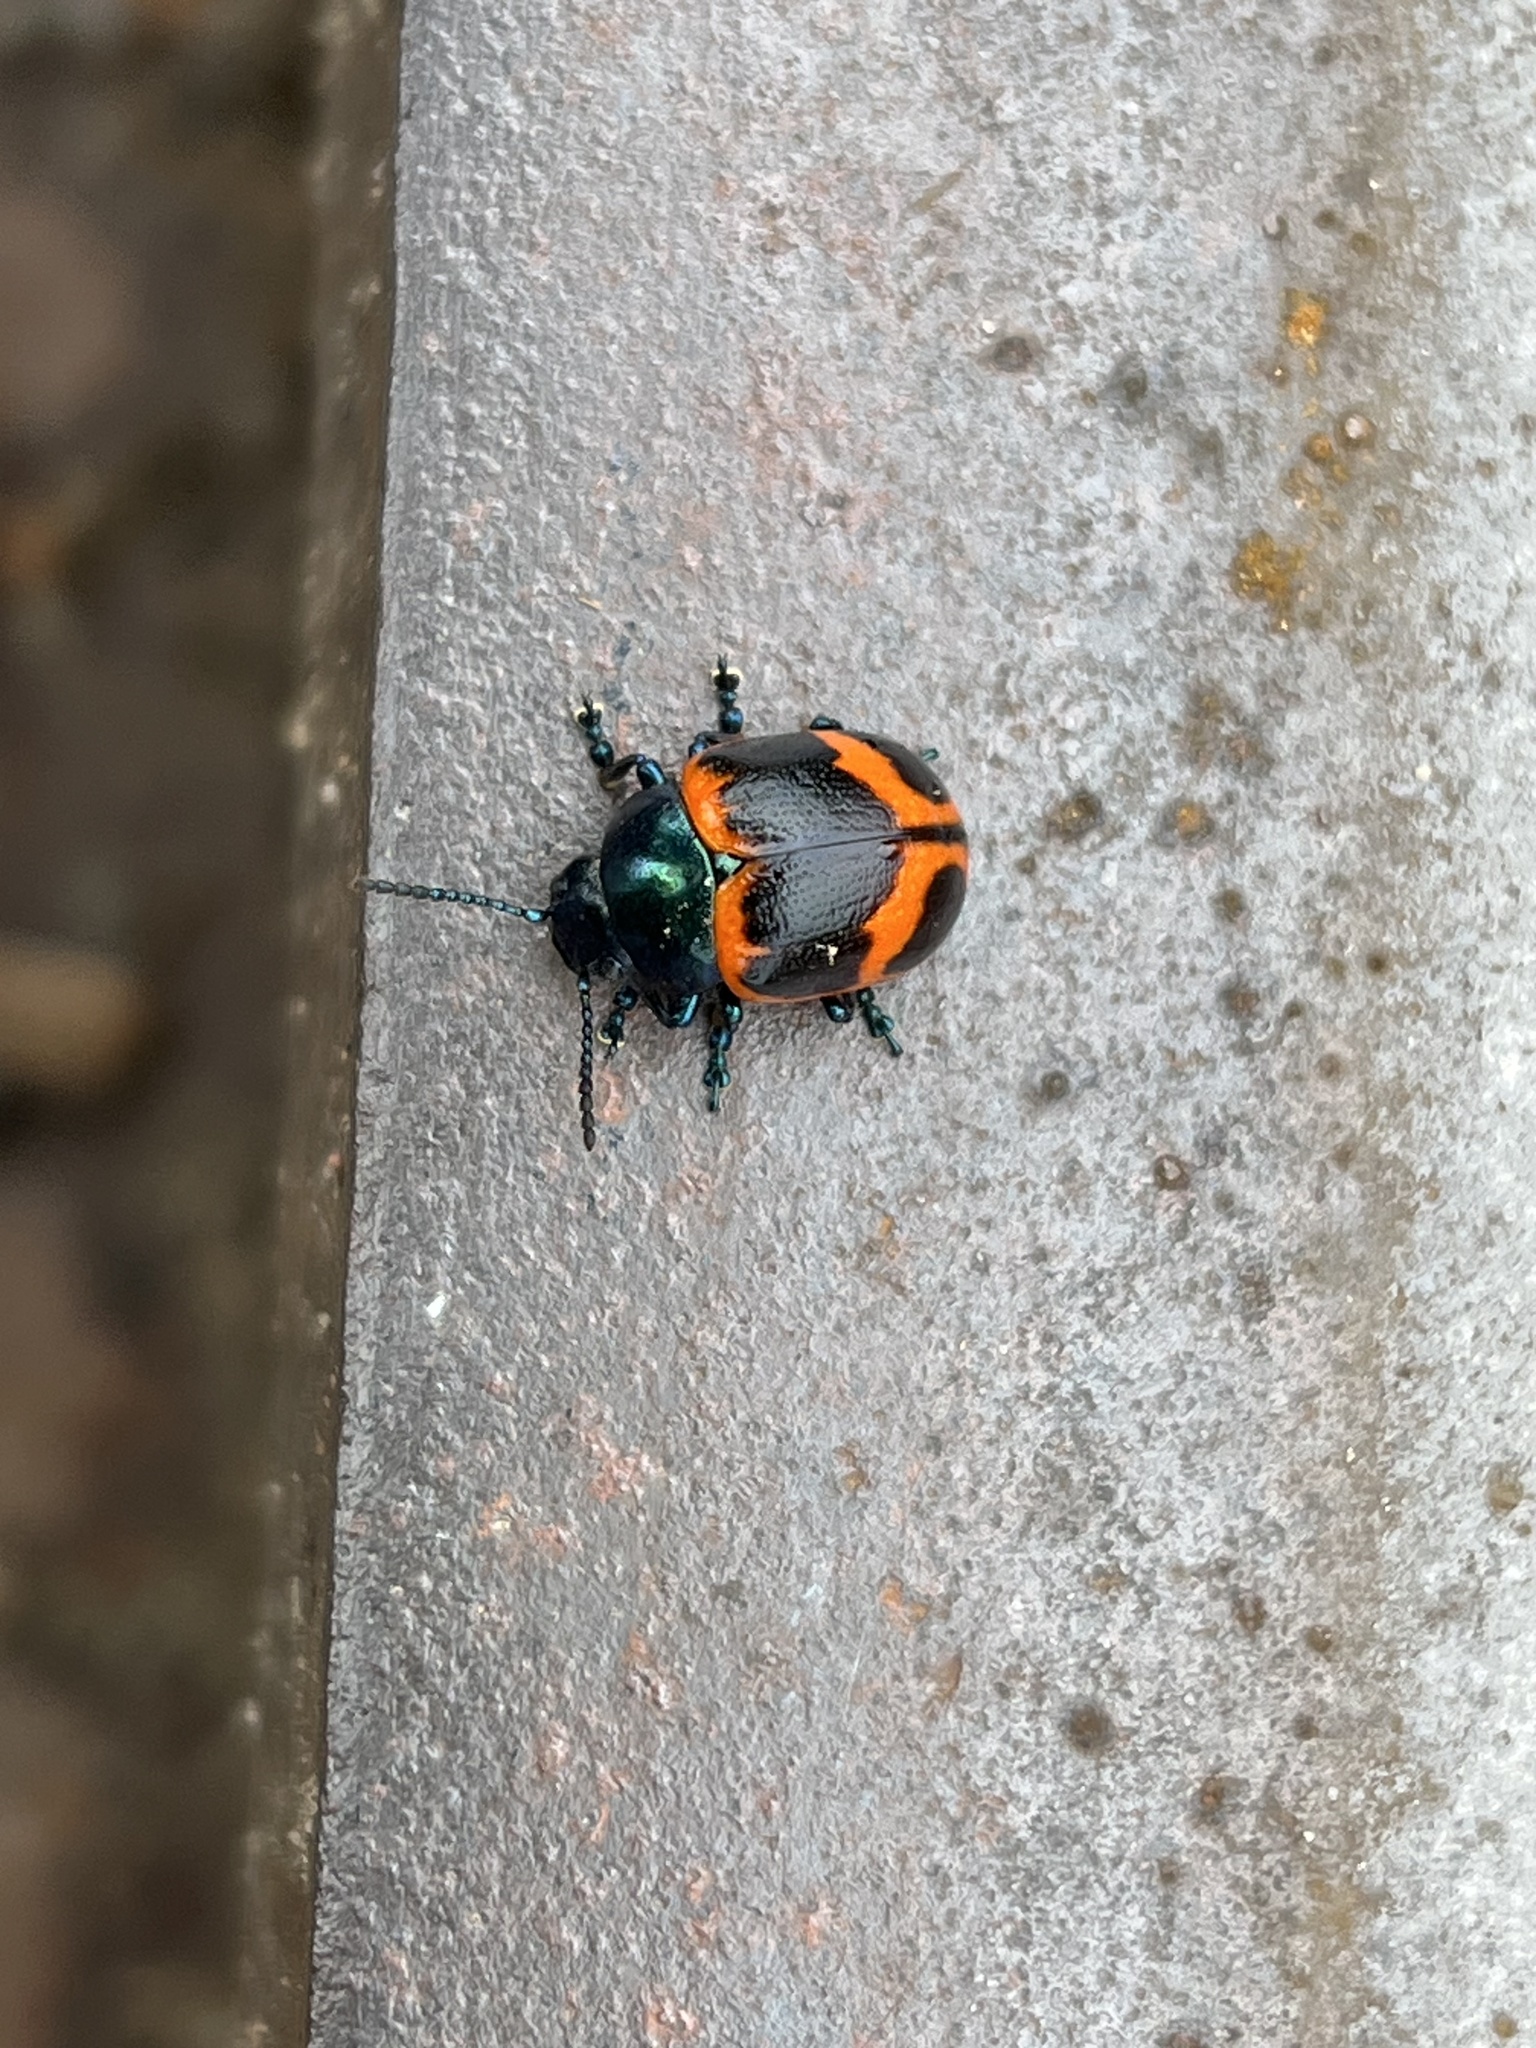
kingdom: Animalia
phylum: Arthropoda
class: Insecta
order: Coleoptera
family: Chrysomelidae
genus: Labidomera
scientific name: Labidomera clivicollis
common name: Swamp milkweed leaf beetle
